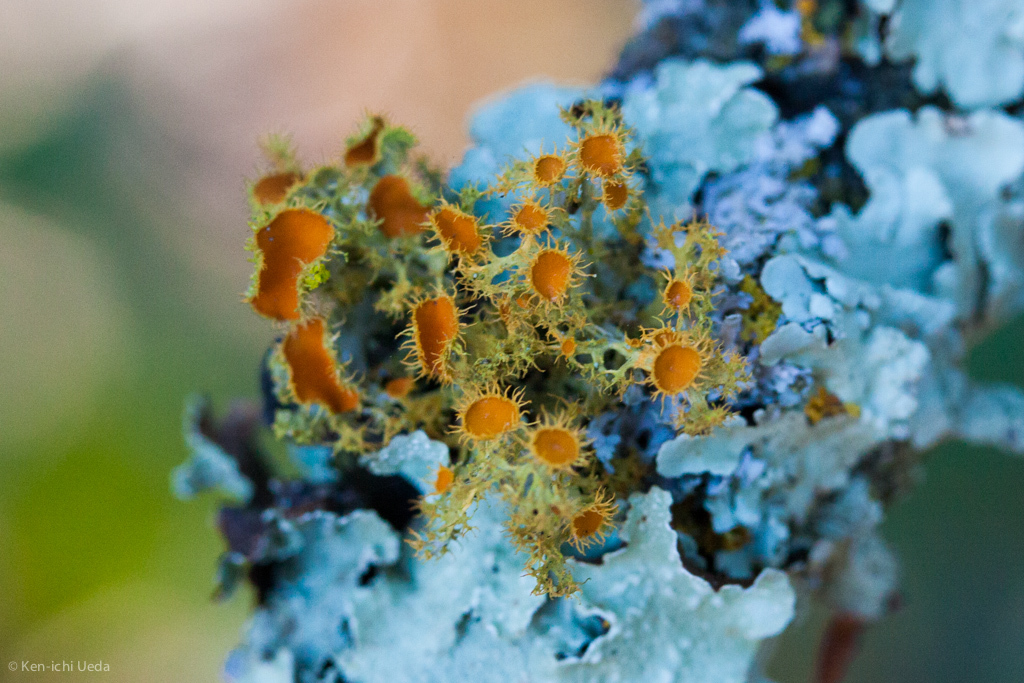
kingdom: Fungi
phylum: Ascomycota
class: Lecanoromycetes
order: Teloschistales
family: Teloschistaceae
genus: Niorma
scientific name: Niorma chrysophthalma
